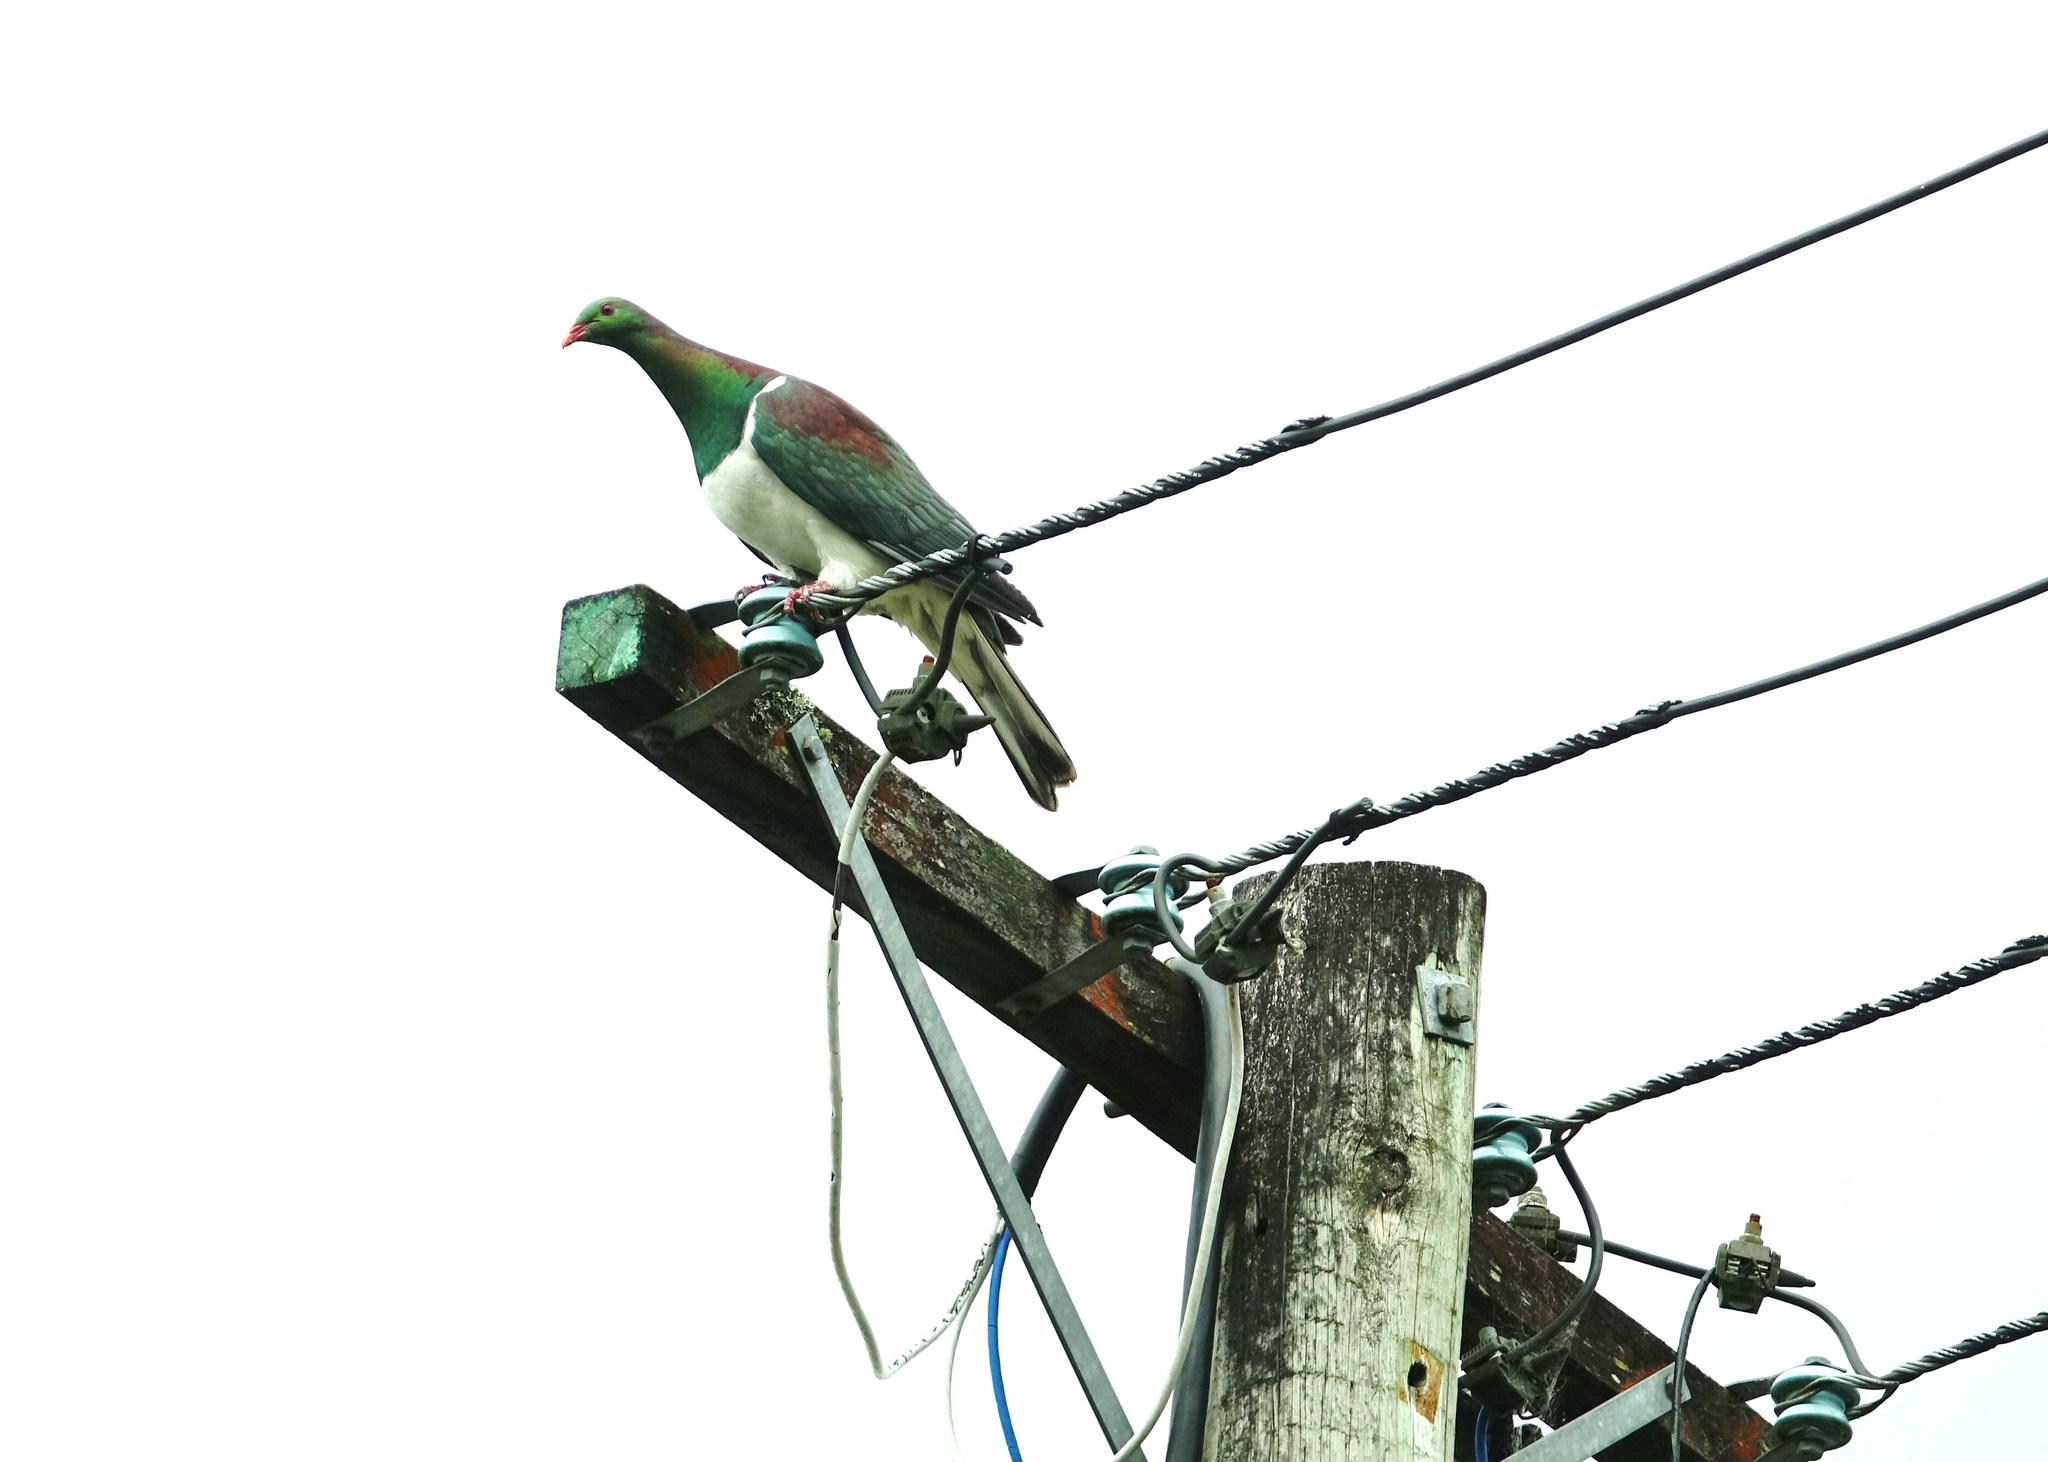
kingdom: Animalia
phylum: Chordata
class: Aves
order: Columbiformes
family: Columbidae
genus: Hemiphaga
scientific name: Hemiphaga novaeseelandiae
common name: New zealand pigeon
